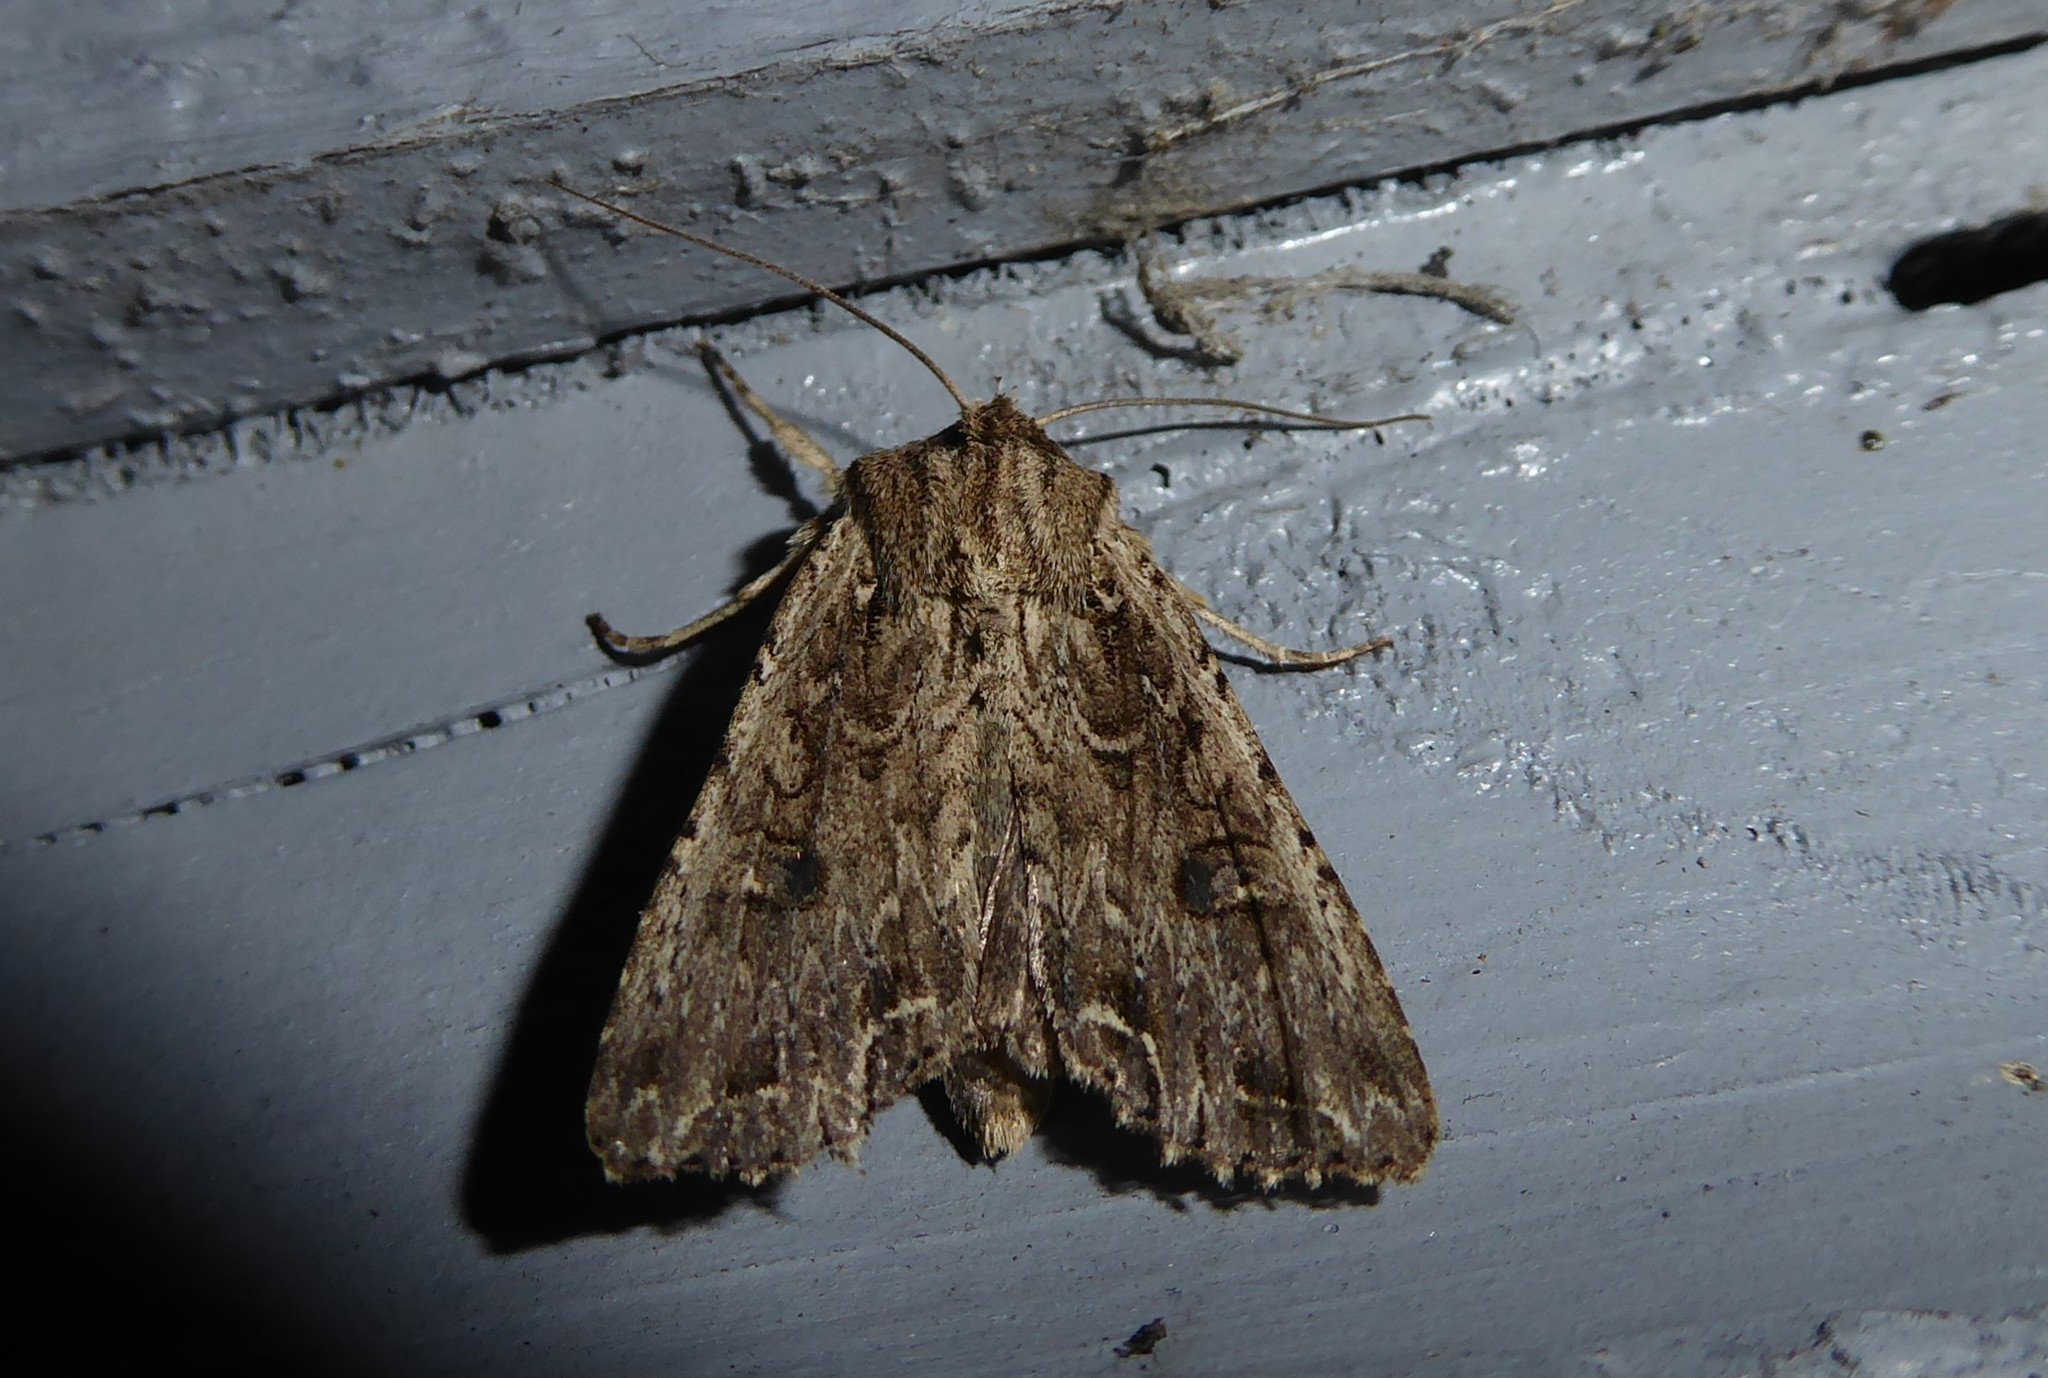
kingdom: Animalia
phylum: Arthropoda
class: Insecta
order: Lepidoptera
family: Noctuidae
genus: Ichneutica
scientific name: Ichneutica lignana
